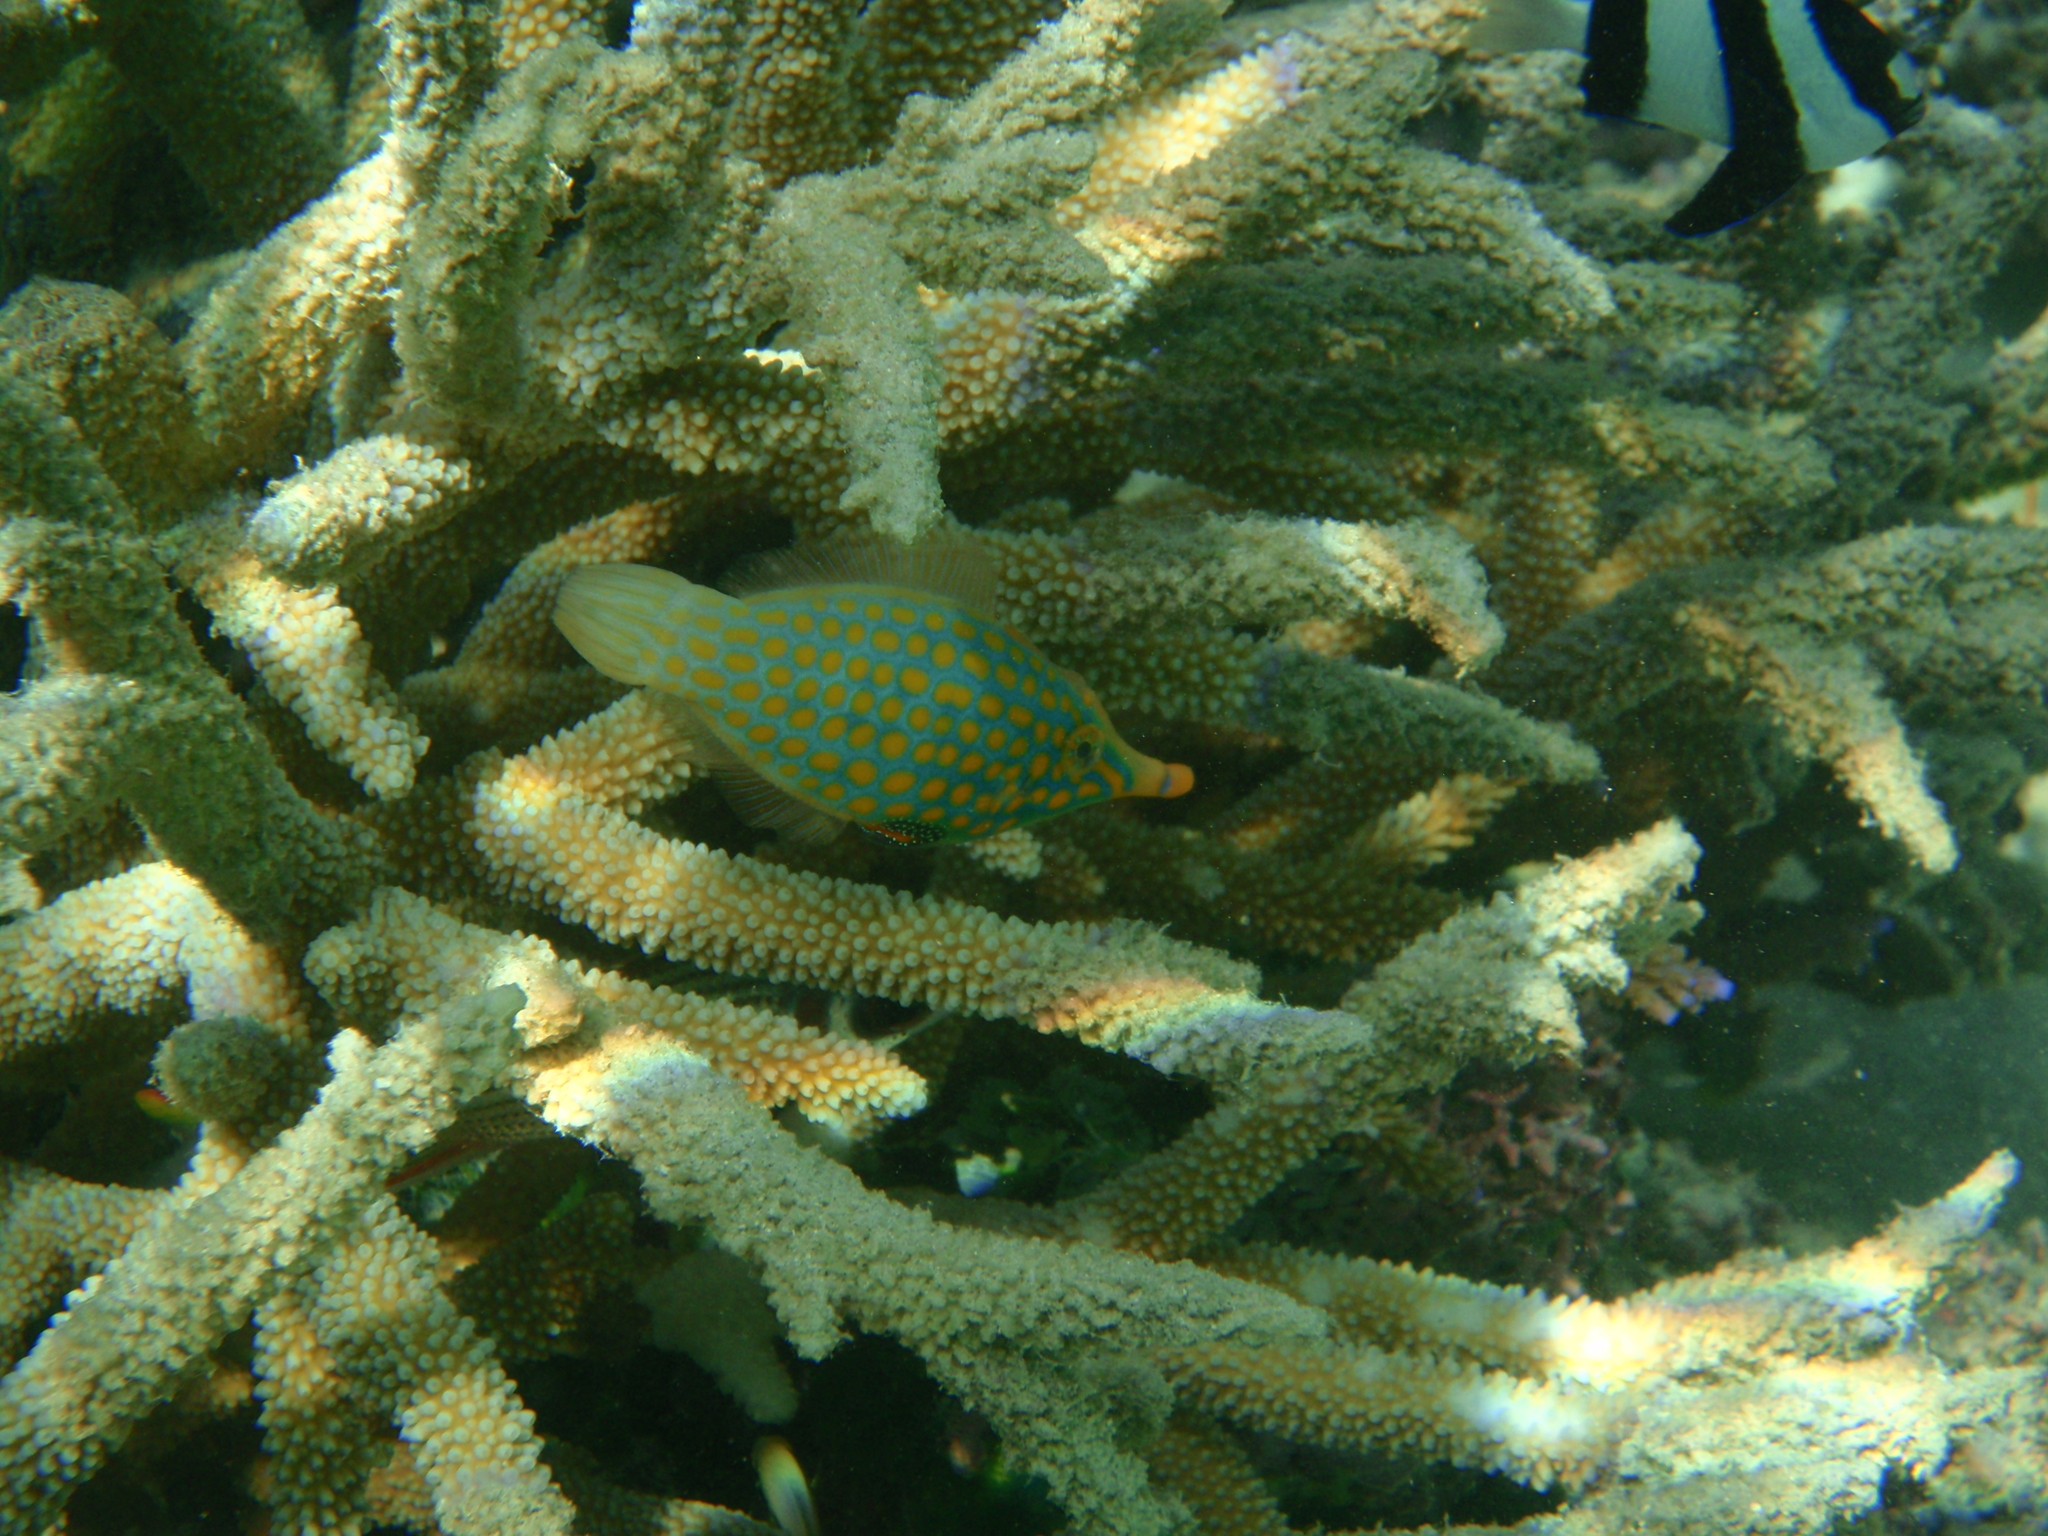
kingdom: Animalia
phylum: Chordata
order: Tetraodontiformes
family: Monacanthidae
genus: Oxymonacanthus
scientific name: Oxymonacanthus longirostris
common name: Beaked leatherjacket
